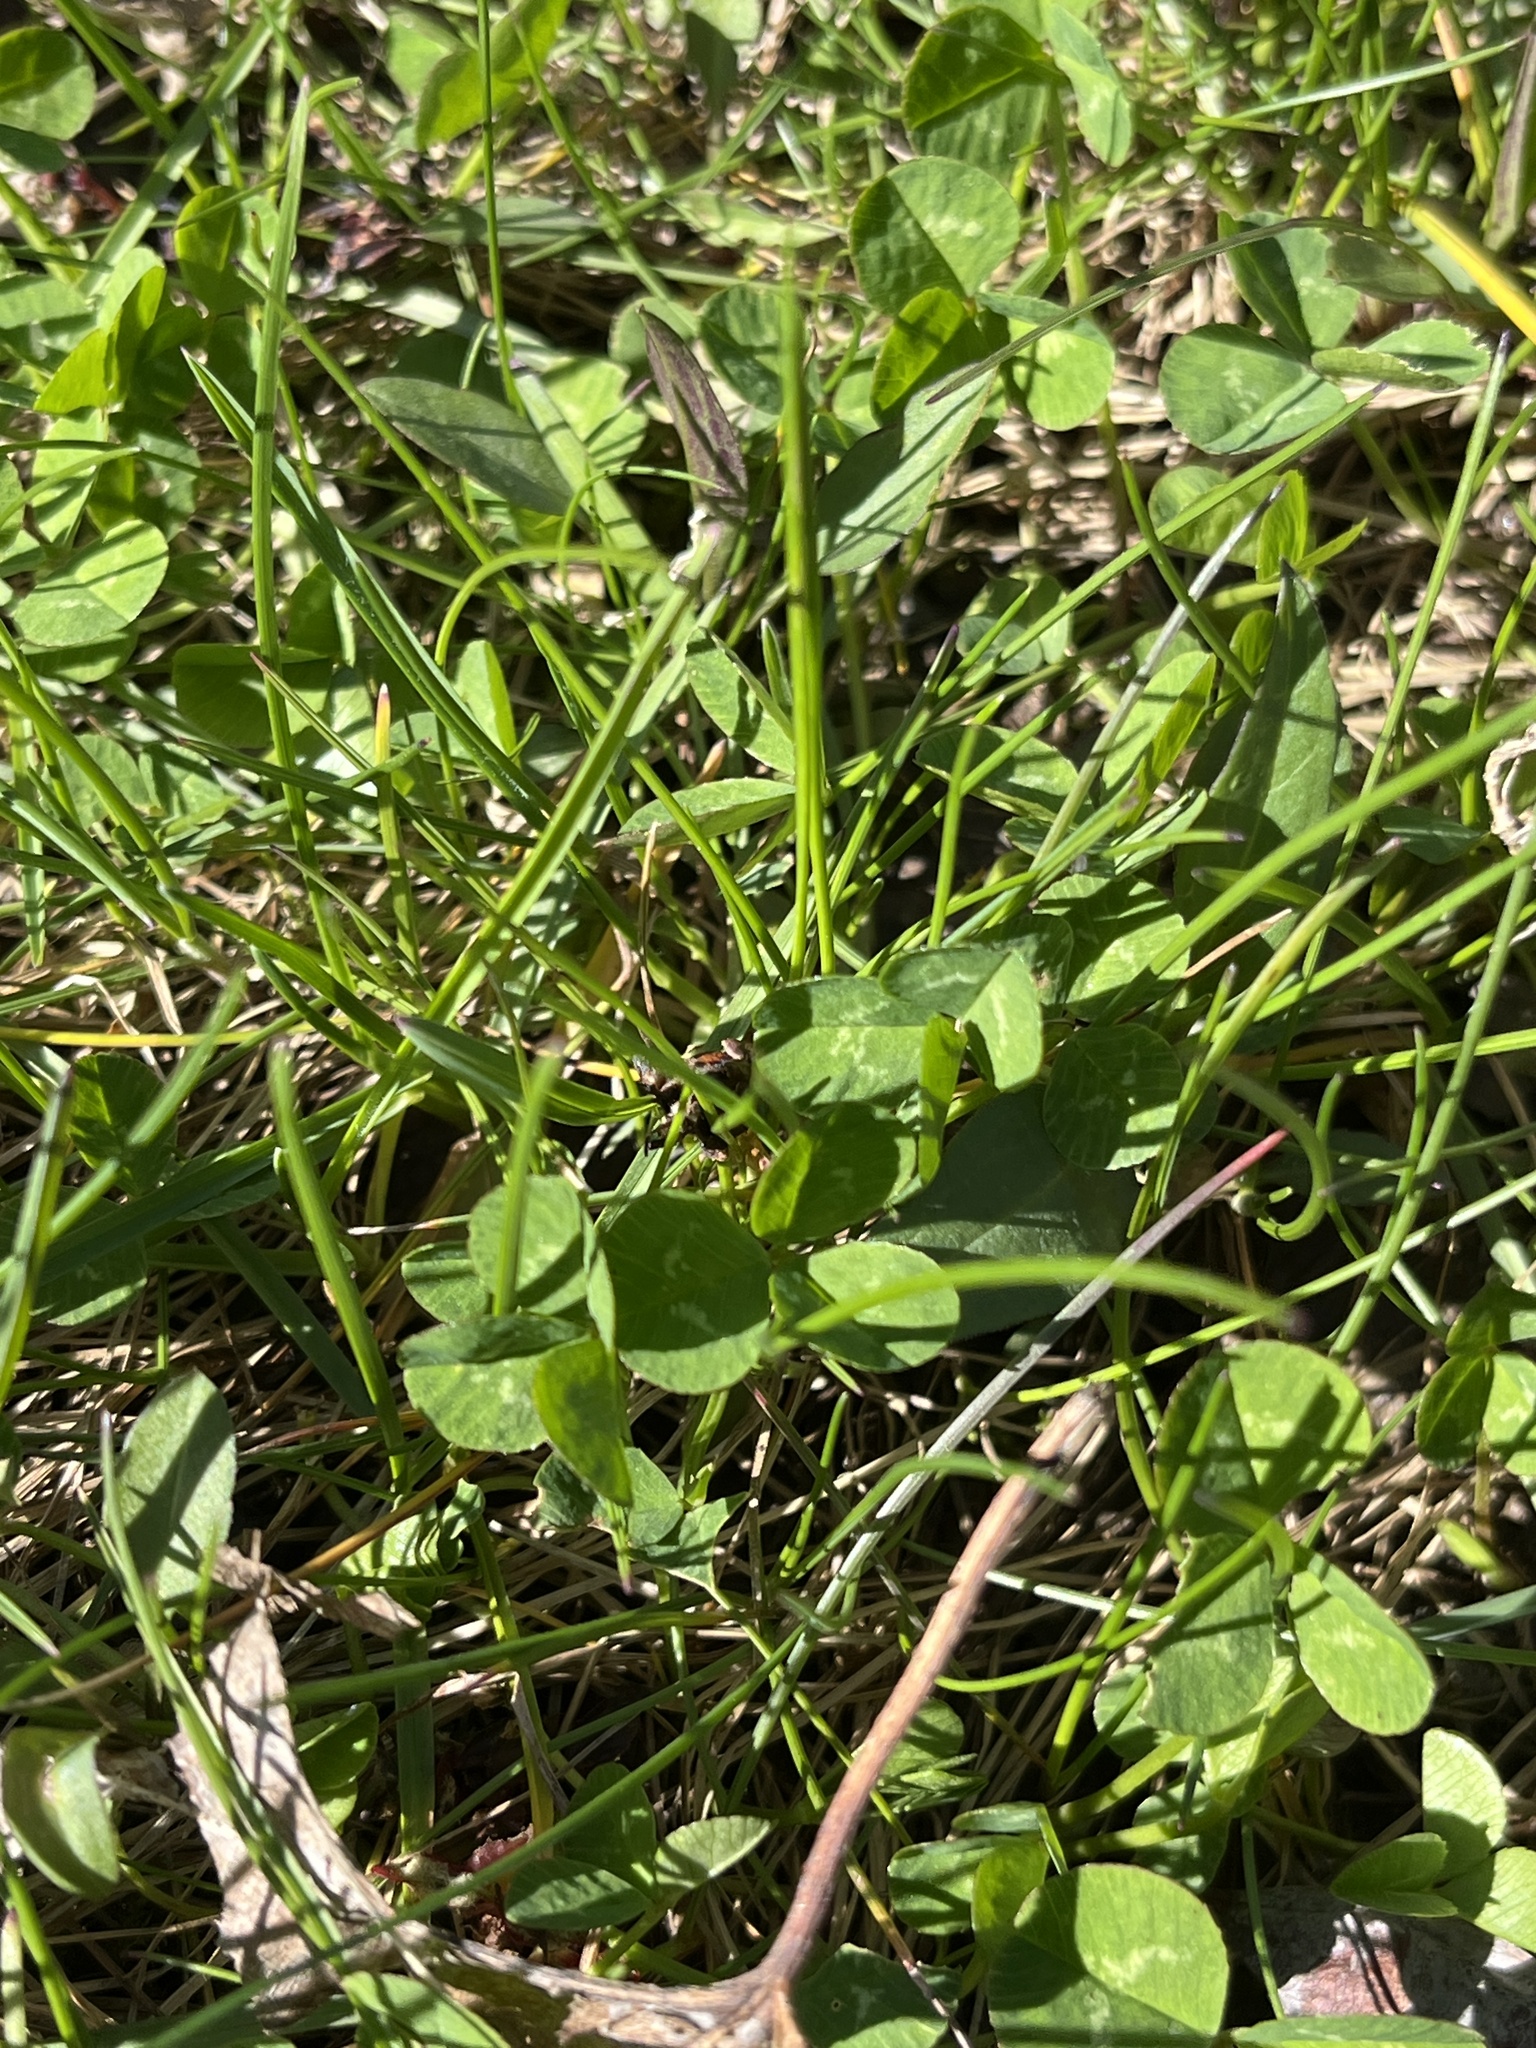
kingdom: Plantae
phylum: Tracheophyta
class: Magnoliopsida
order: Fabales
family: Fabaceae
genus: Trifolium
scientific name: Trifolium repens
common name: White clover
